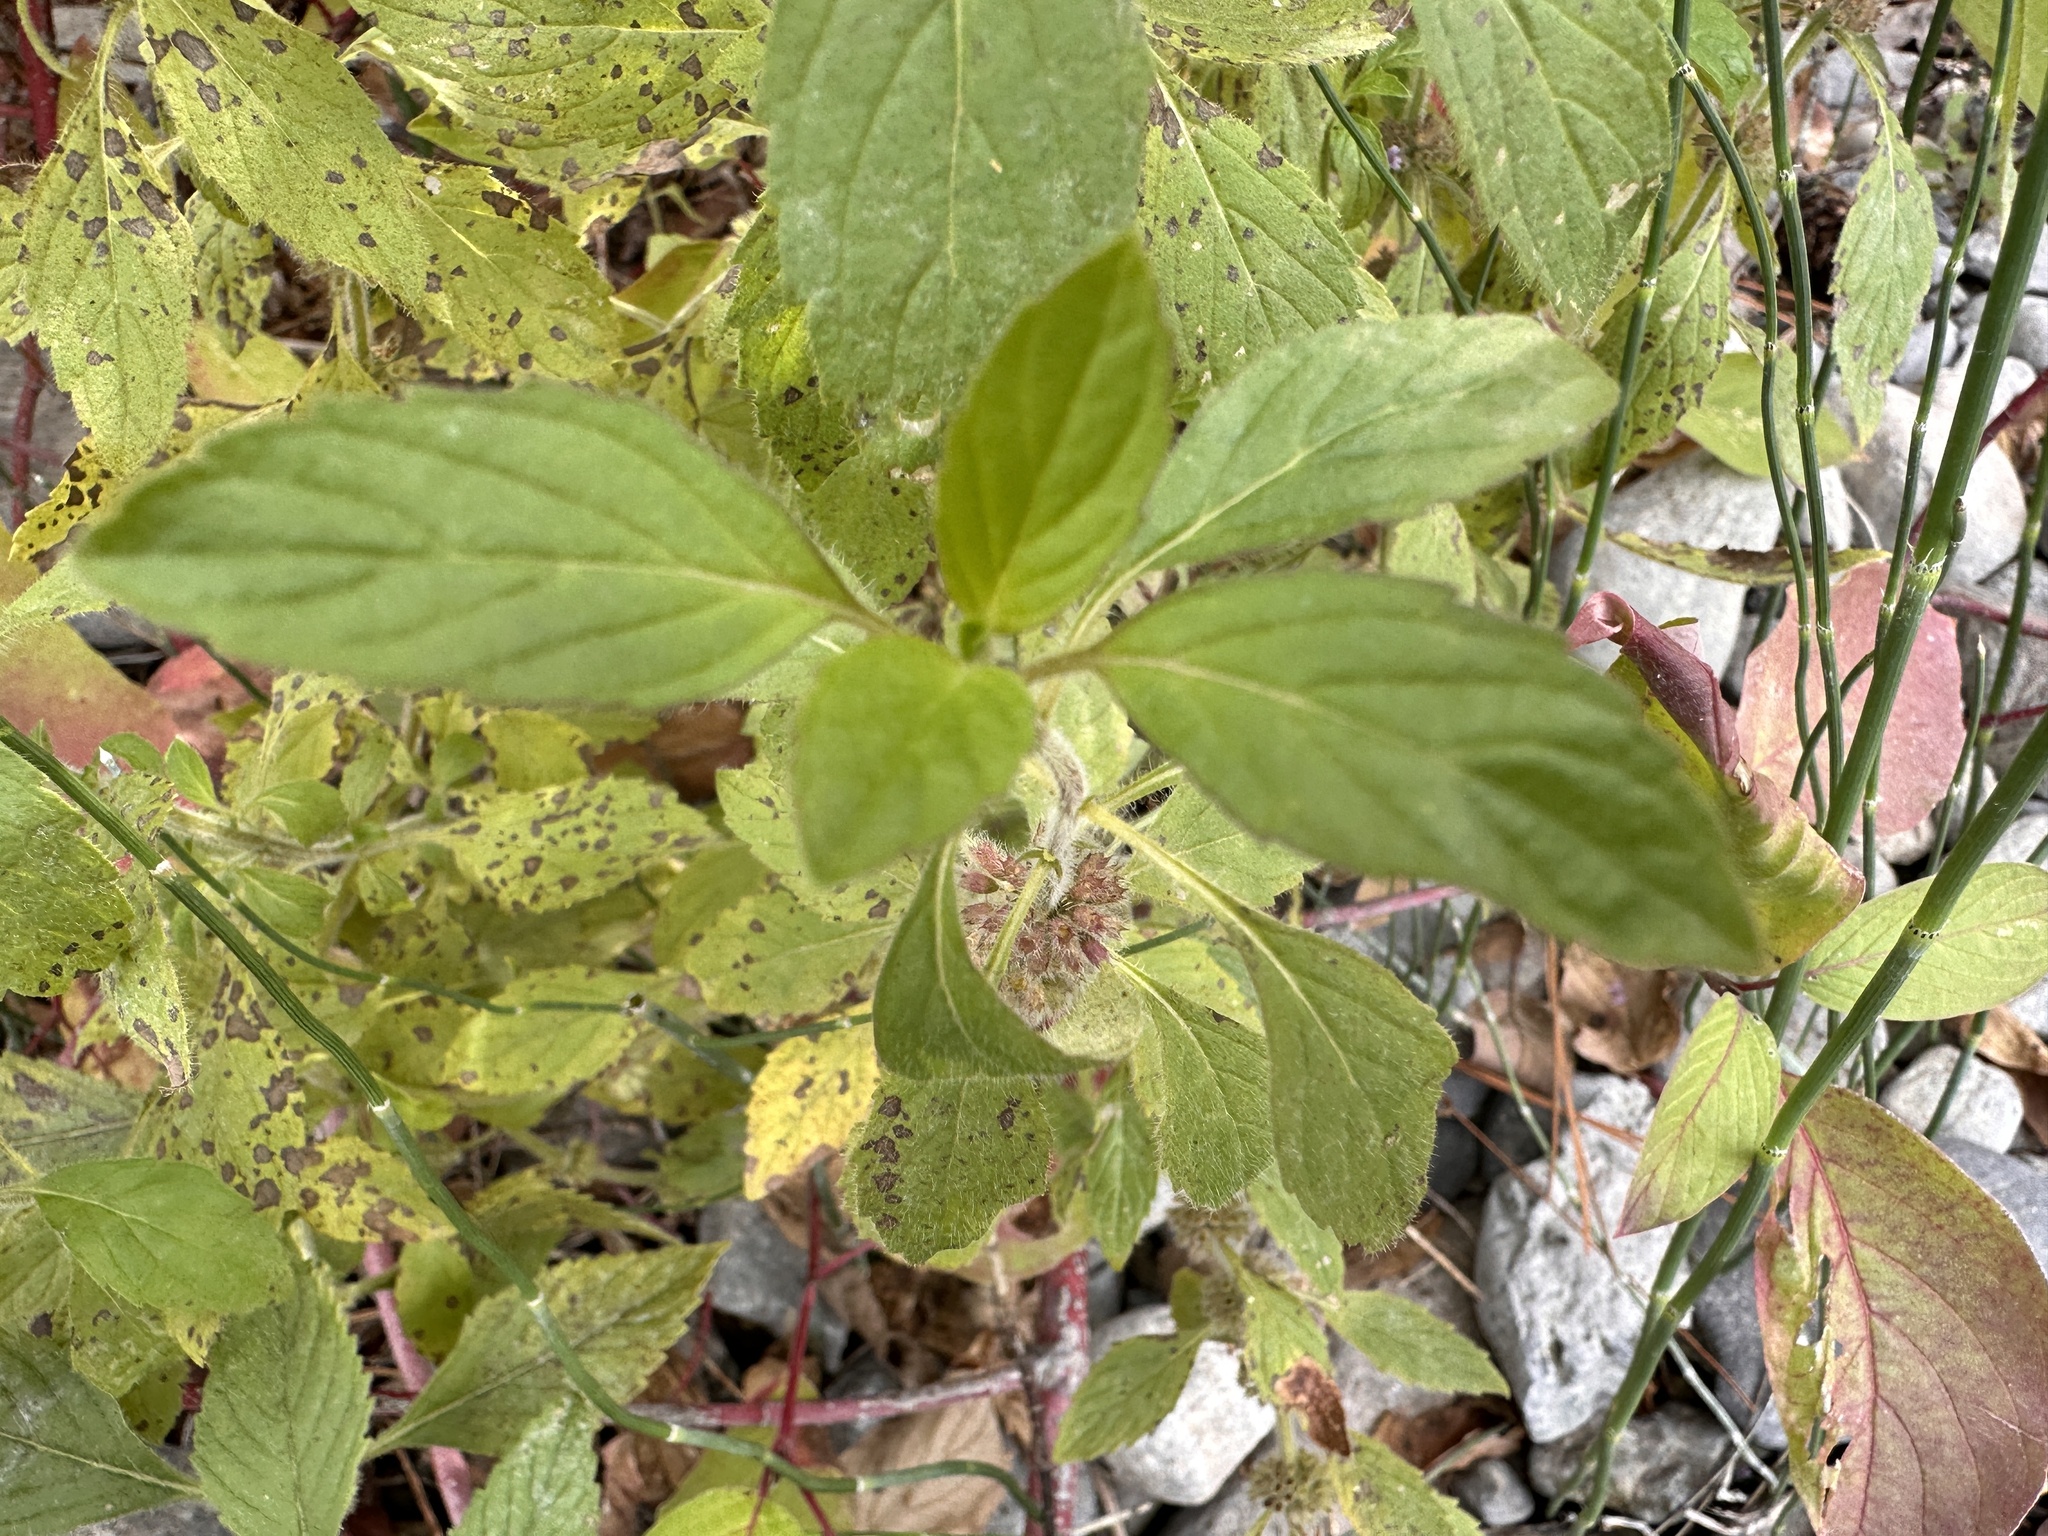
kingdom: Plantae
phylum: Tracheophyta
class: Magnoliopsida
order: Lamiales
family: Lamiaceae
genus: Mentha
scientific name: Mentha canadensis
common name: American corn mint
